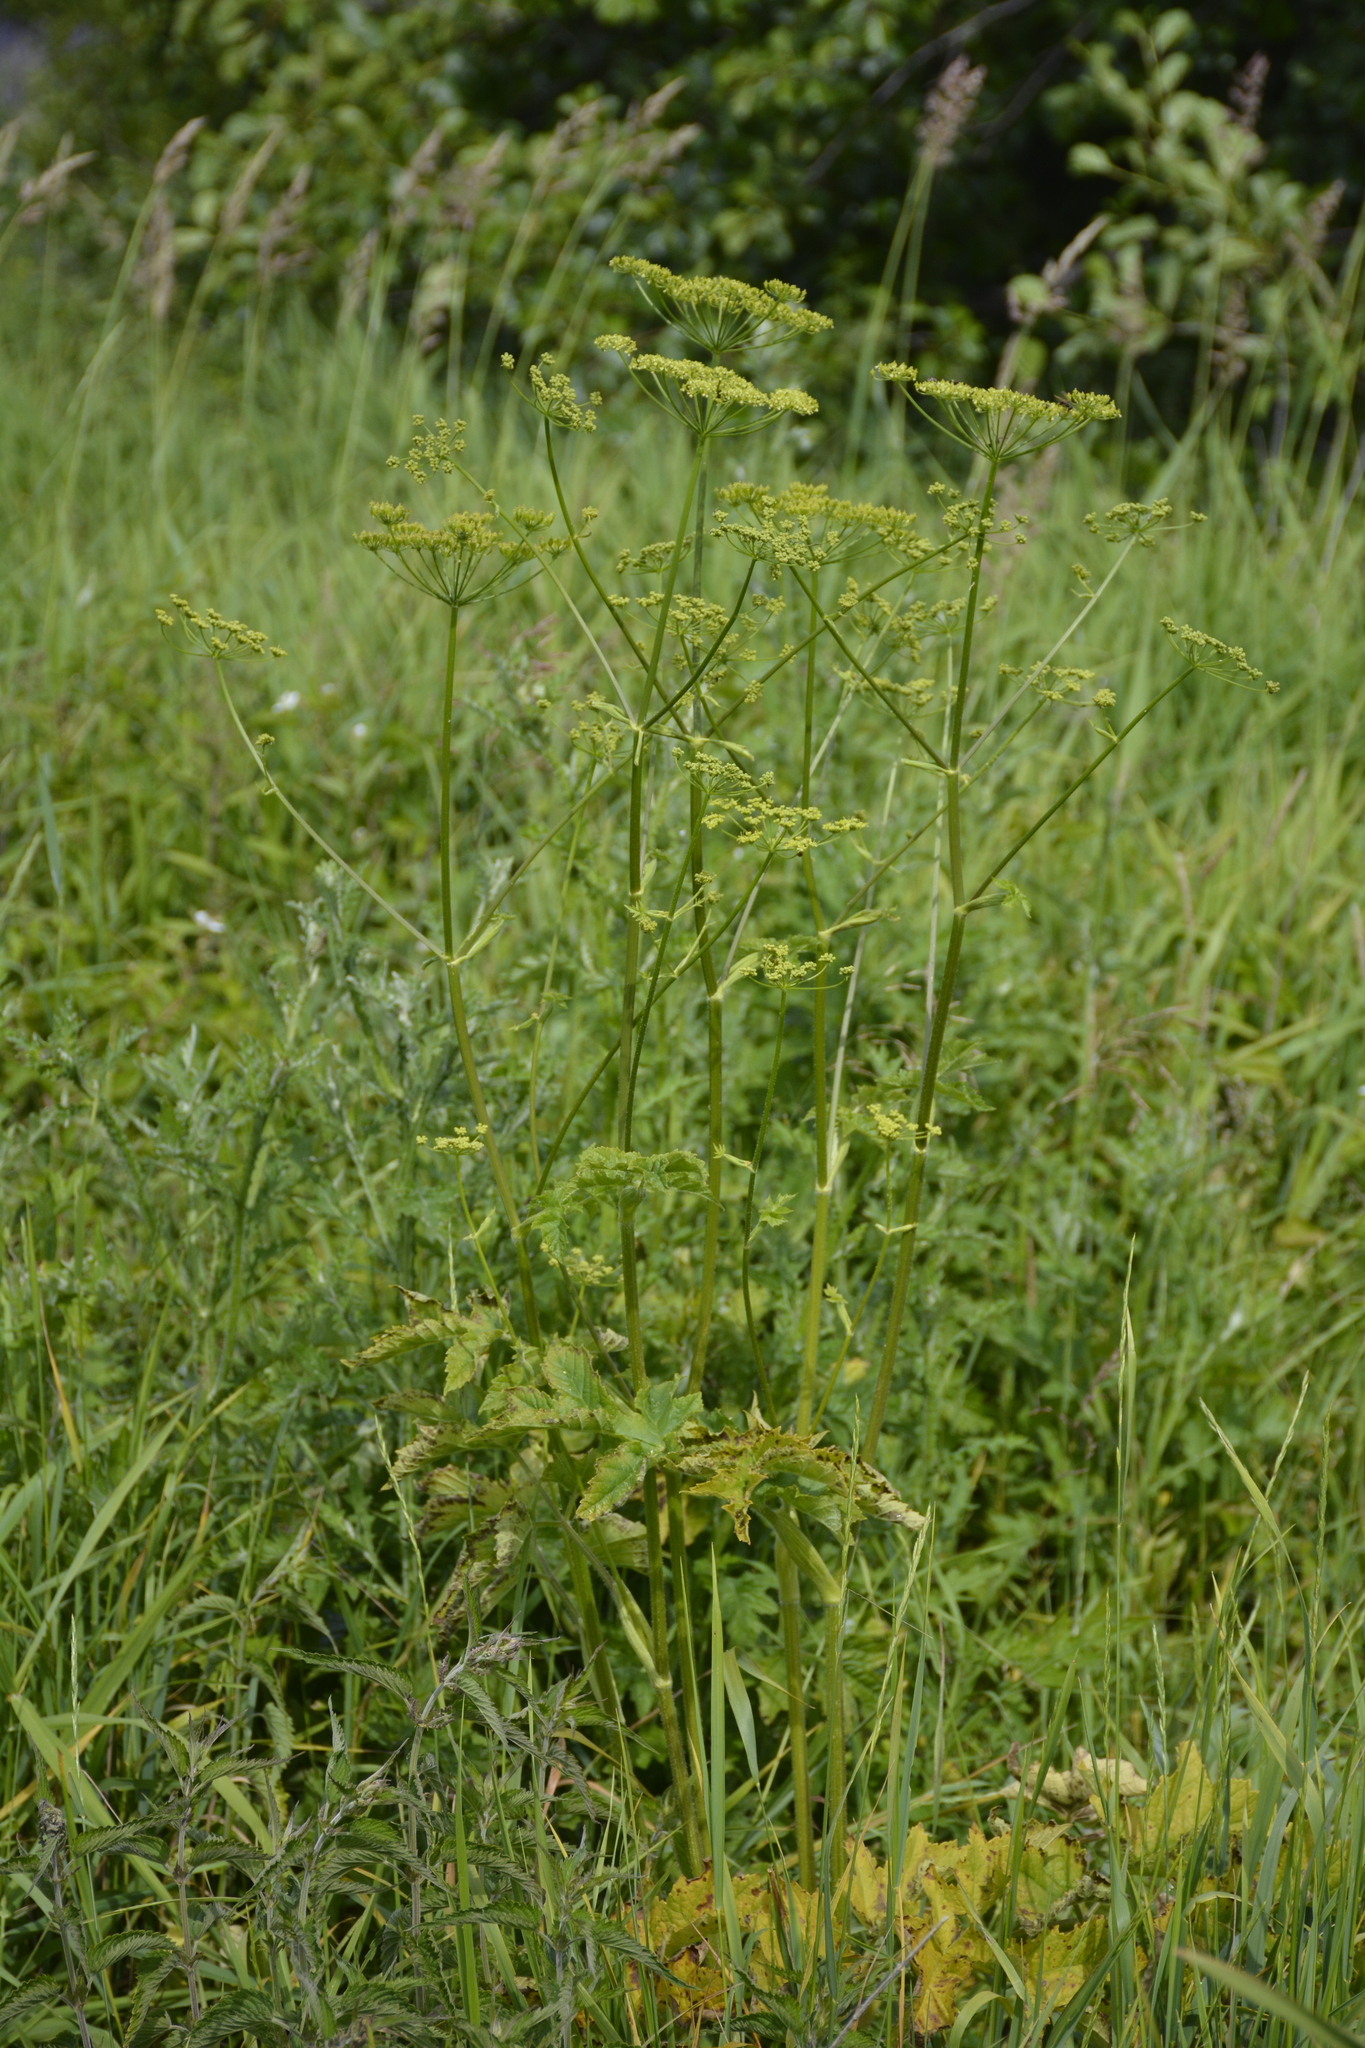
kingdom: Plantae
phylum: Tracheophyta
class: Magnoliopsida
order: Apiales
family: Apiaceae
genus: Pastinaca
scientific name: Pastinaca sativa
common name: Wild parsnip
